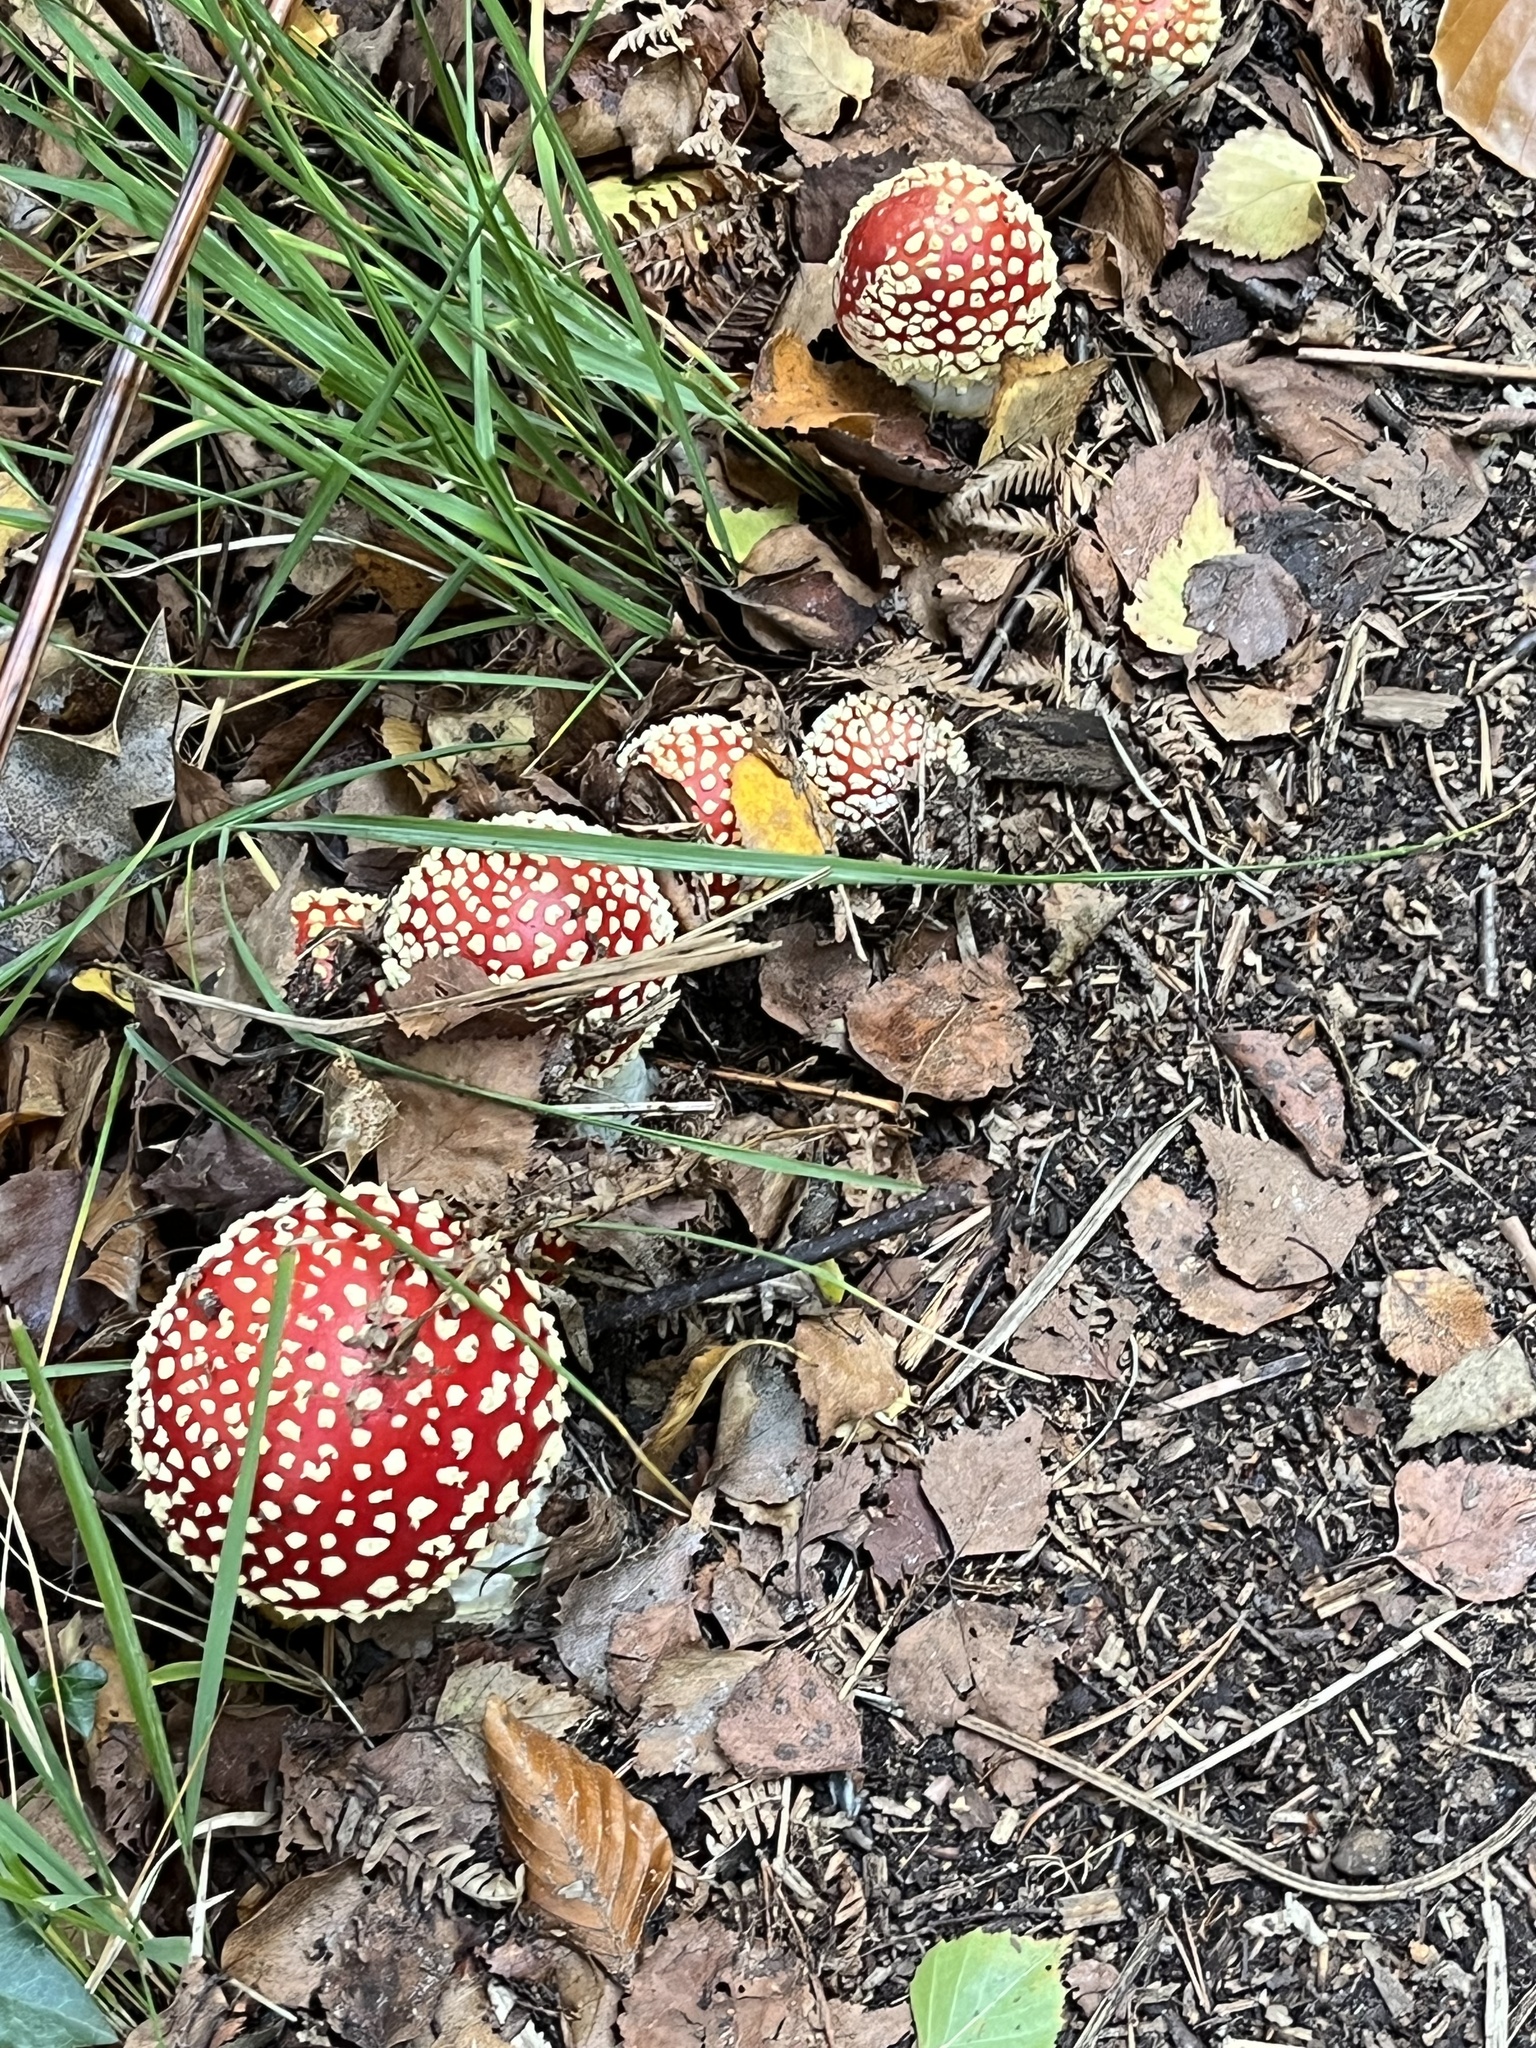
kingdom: Fungi
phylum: Basidiomycota
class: Agaricomycetes
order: Agaricales
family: Amanitaceae
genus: Amanita
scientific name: Amanita muscaria
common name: Fly agaric
